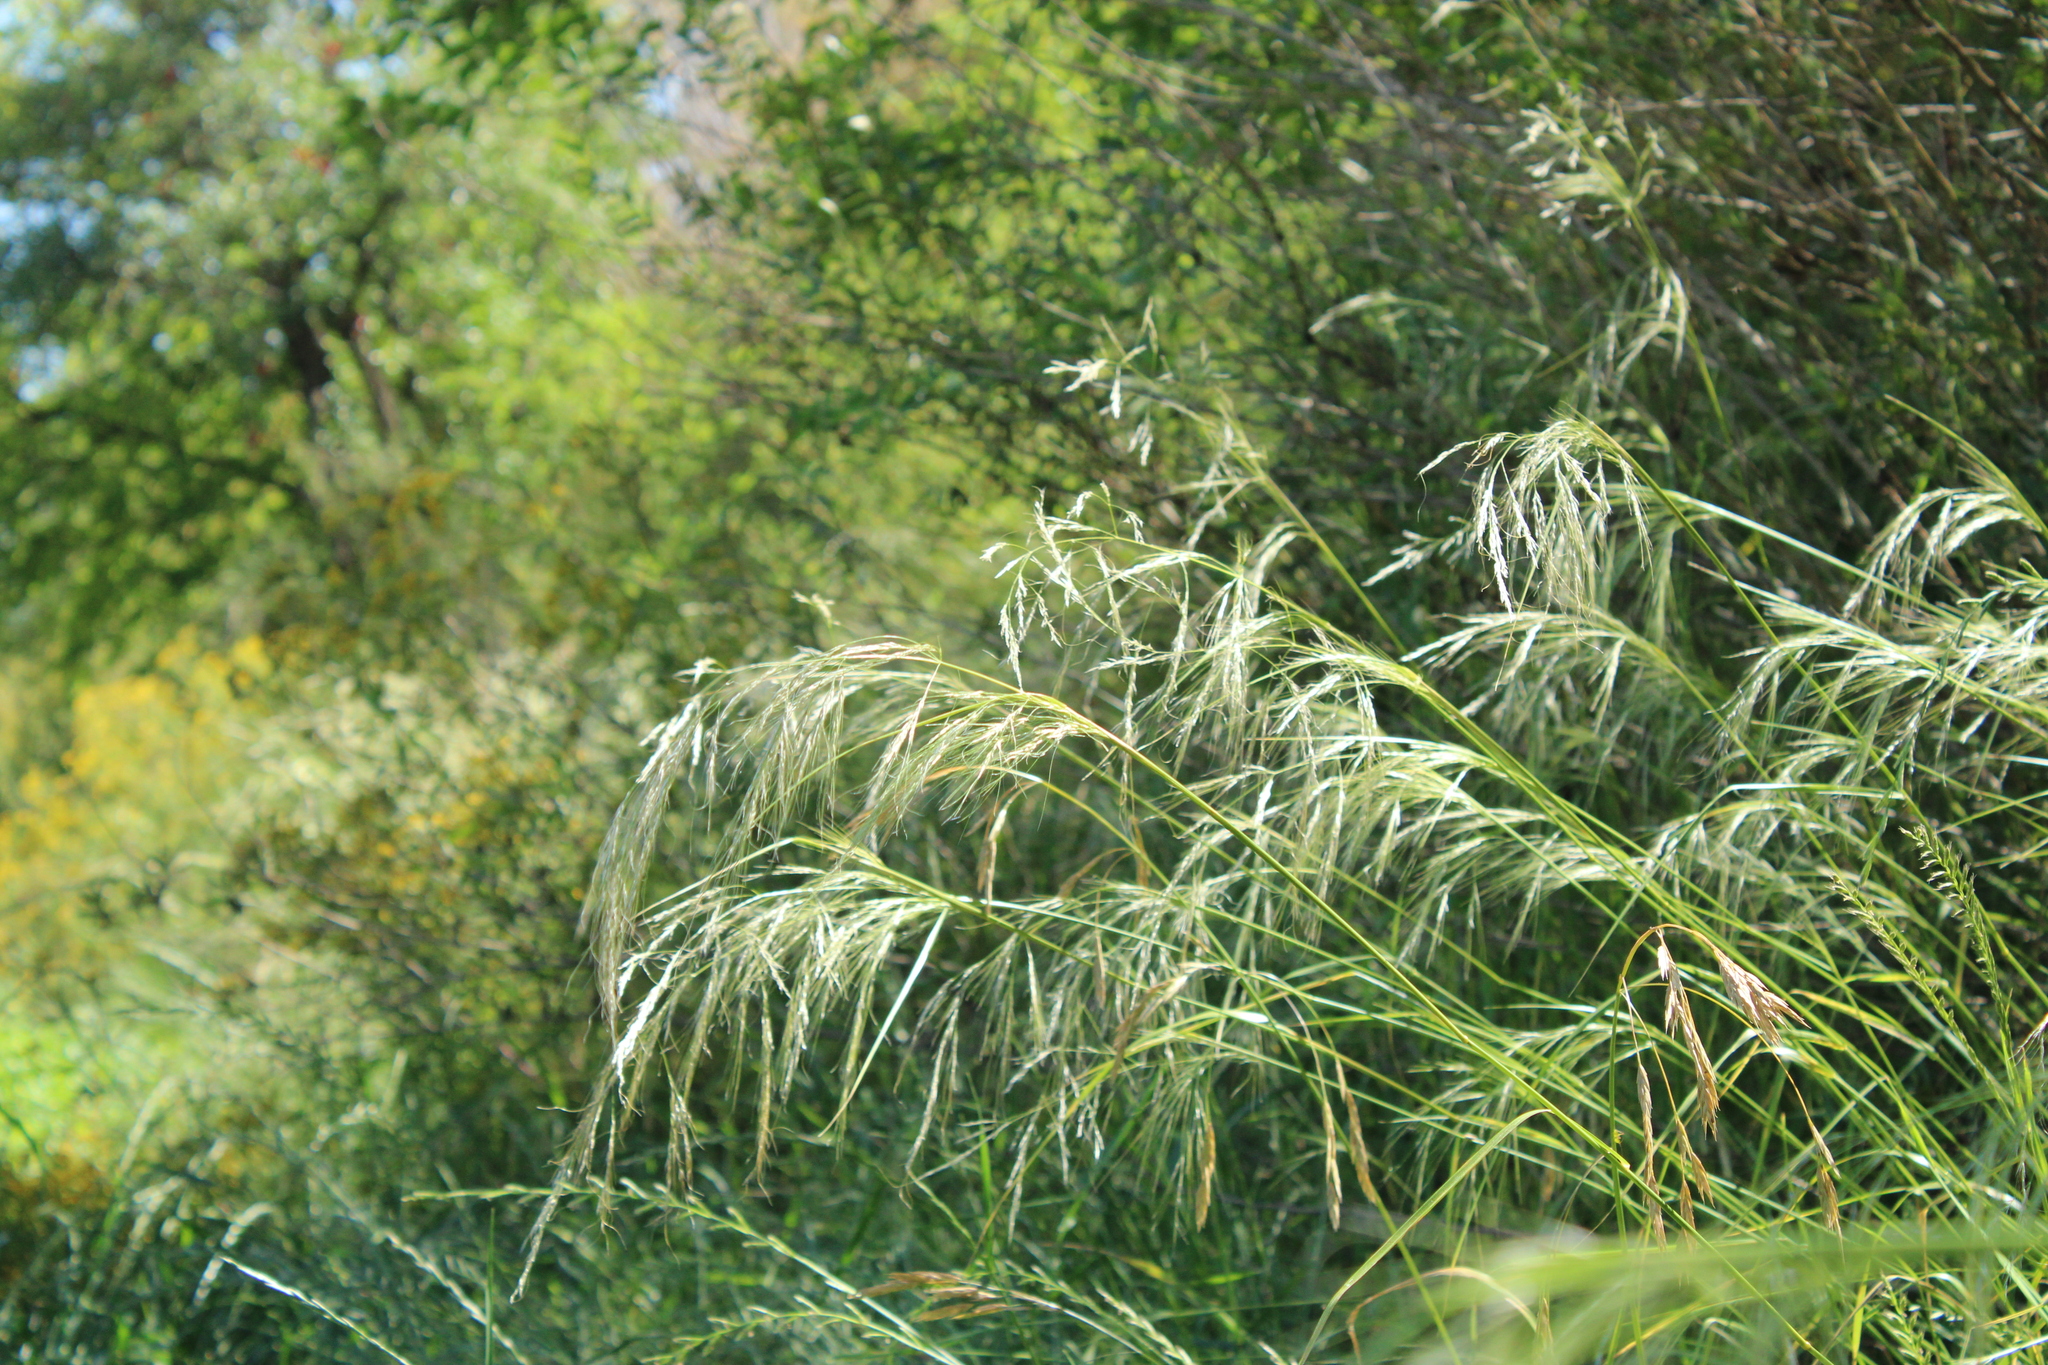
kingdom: Plantae
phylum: Tracheophyta
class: Liliopsida
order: Poales
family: Poaceae
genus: Nassella
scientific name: Nassella neesiana
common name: American needle-grass
